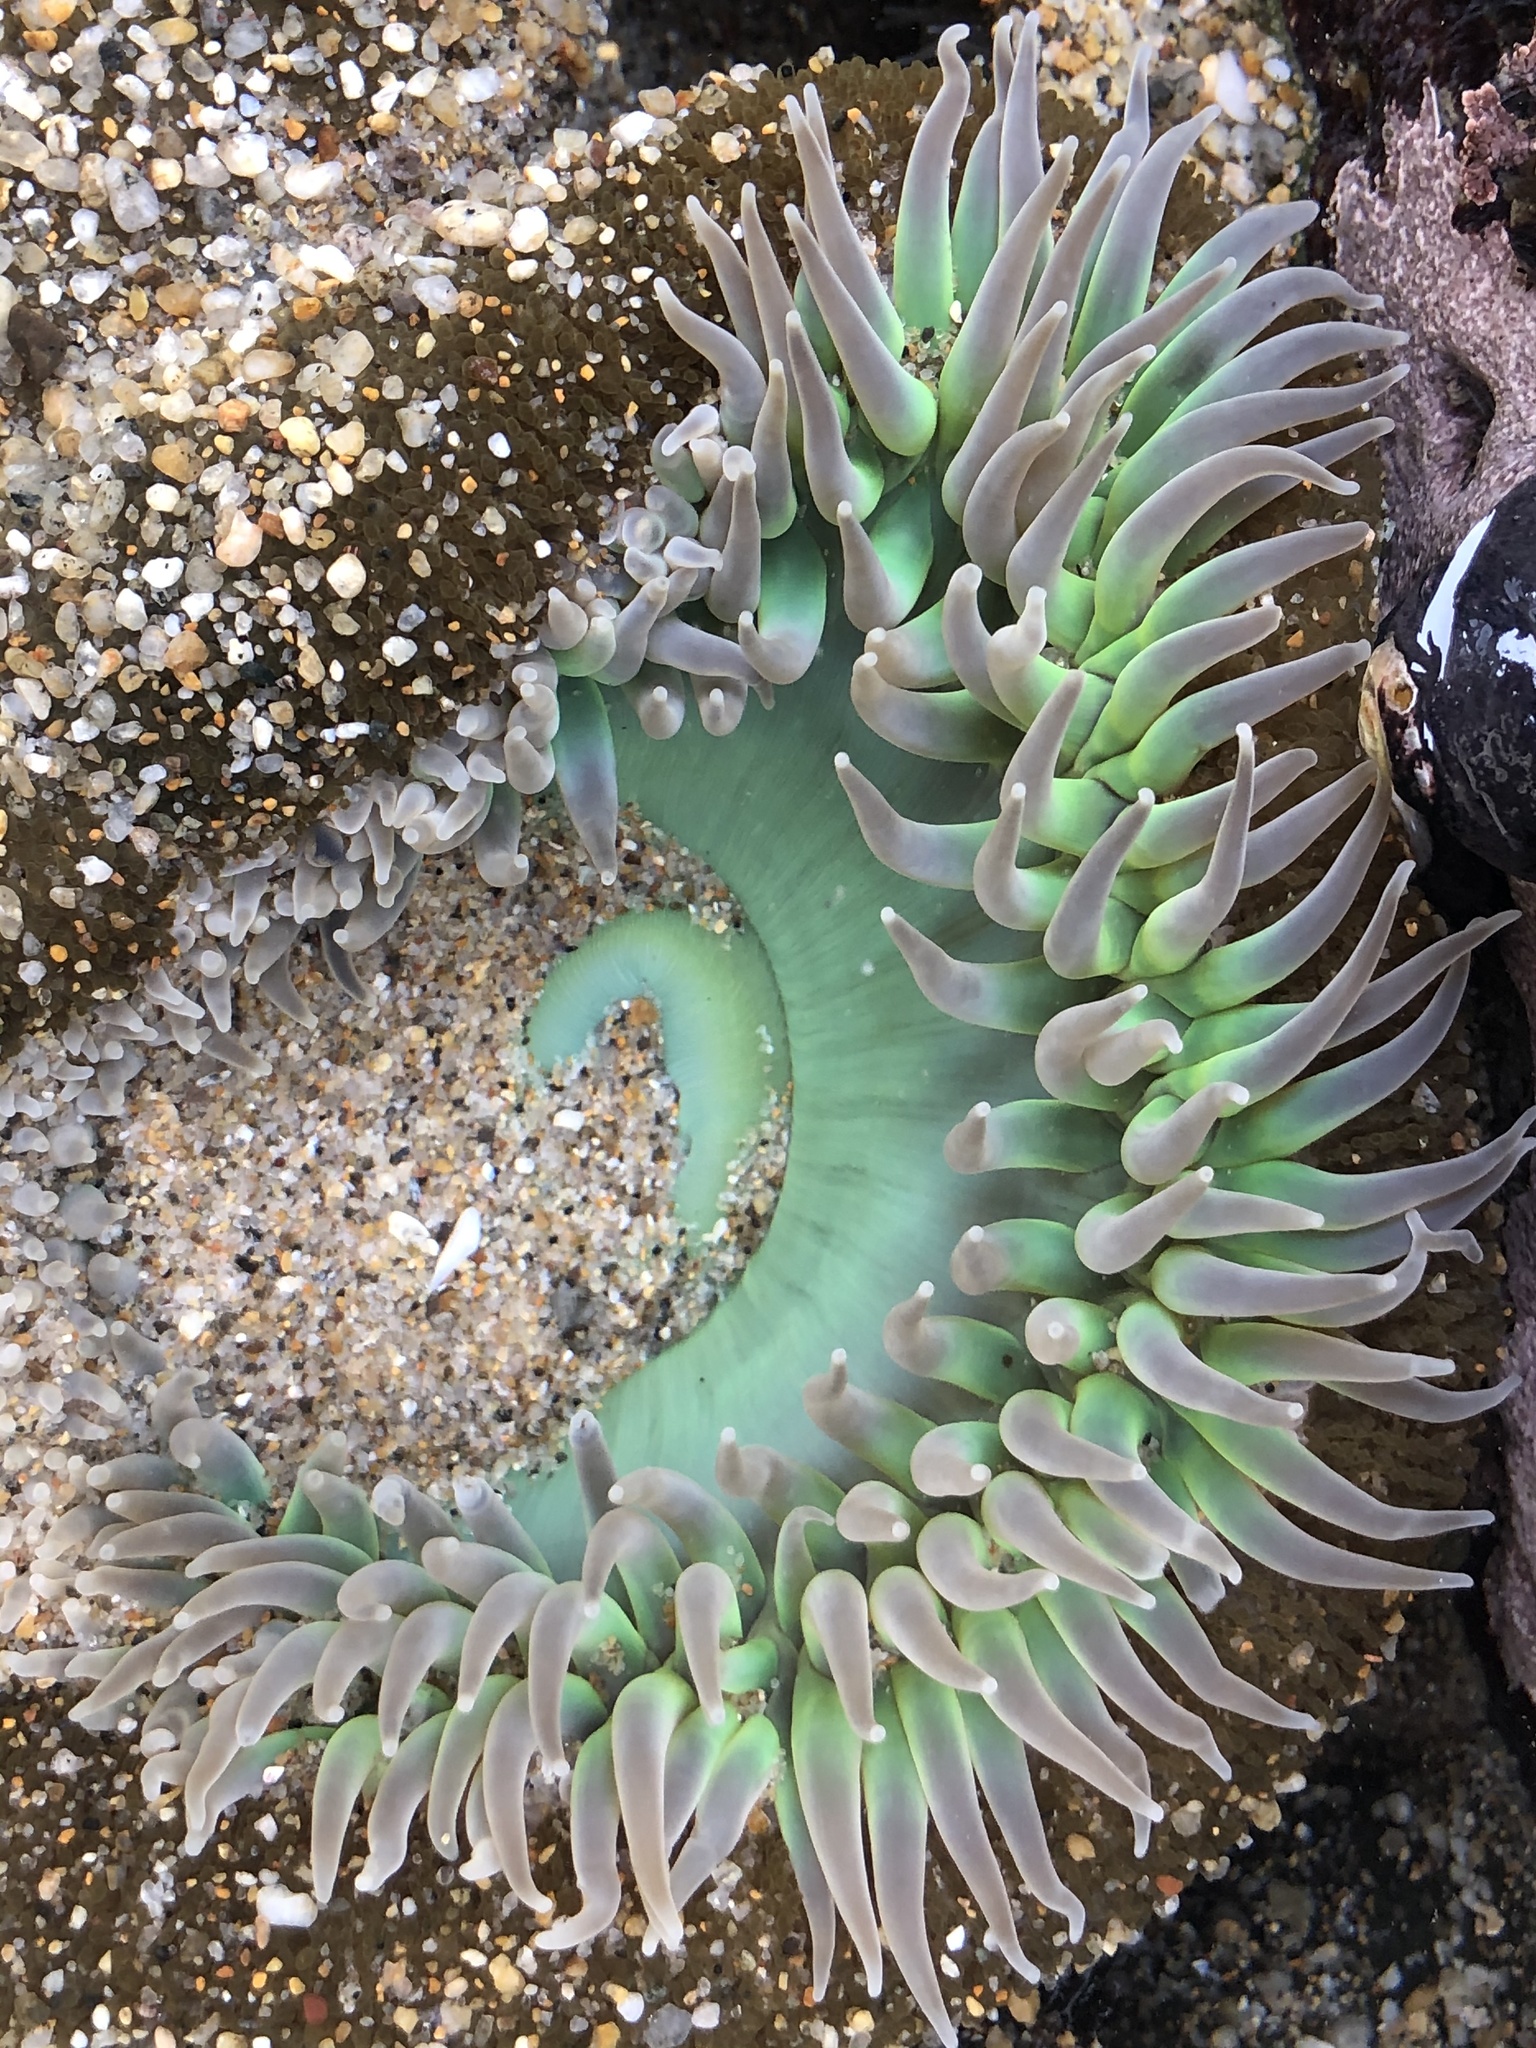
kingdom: Animalia
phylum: Cnidaria
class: Anthozoa
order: Actiniaria
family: Actiniidae
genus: Anthopleura
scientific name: Anthopleura xanthogrammica
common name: Giant green anemone
